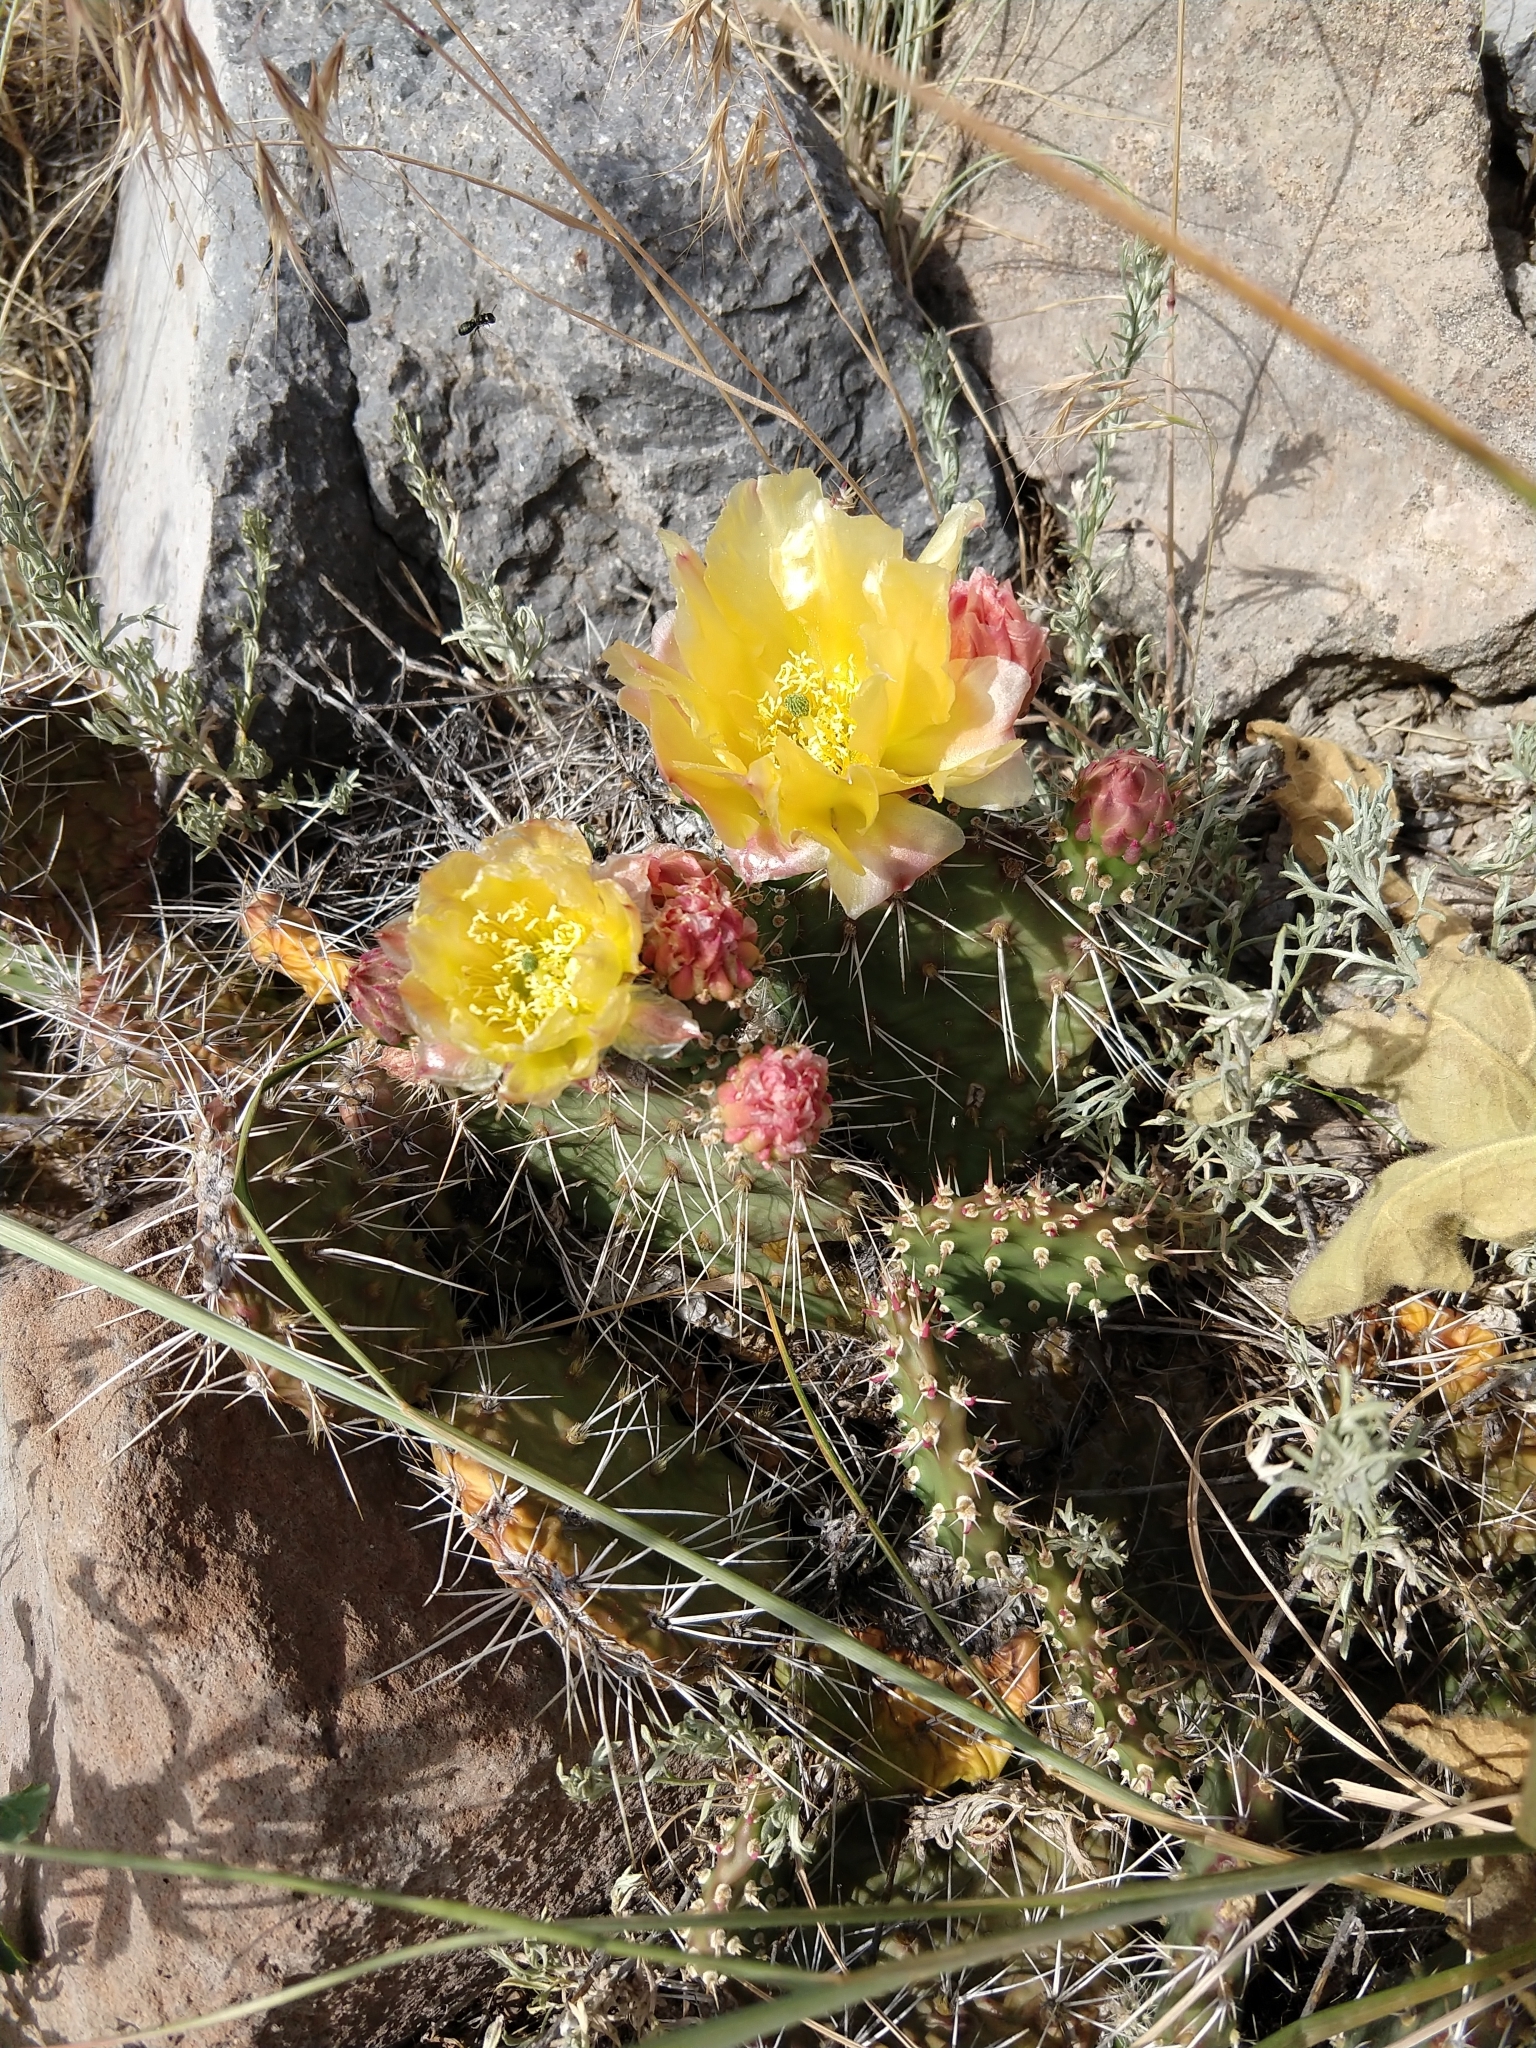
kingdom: Plantae
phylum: Tracheophyta
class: Magnoliopsida
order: Caryophyllales
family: Cactaceae
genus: Opuntia
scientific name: Opuntia polyacantha
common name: Plains prickly-pear
